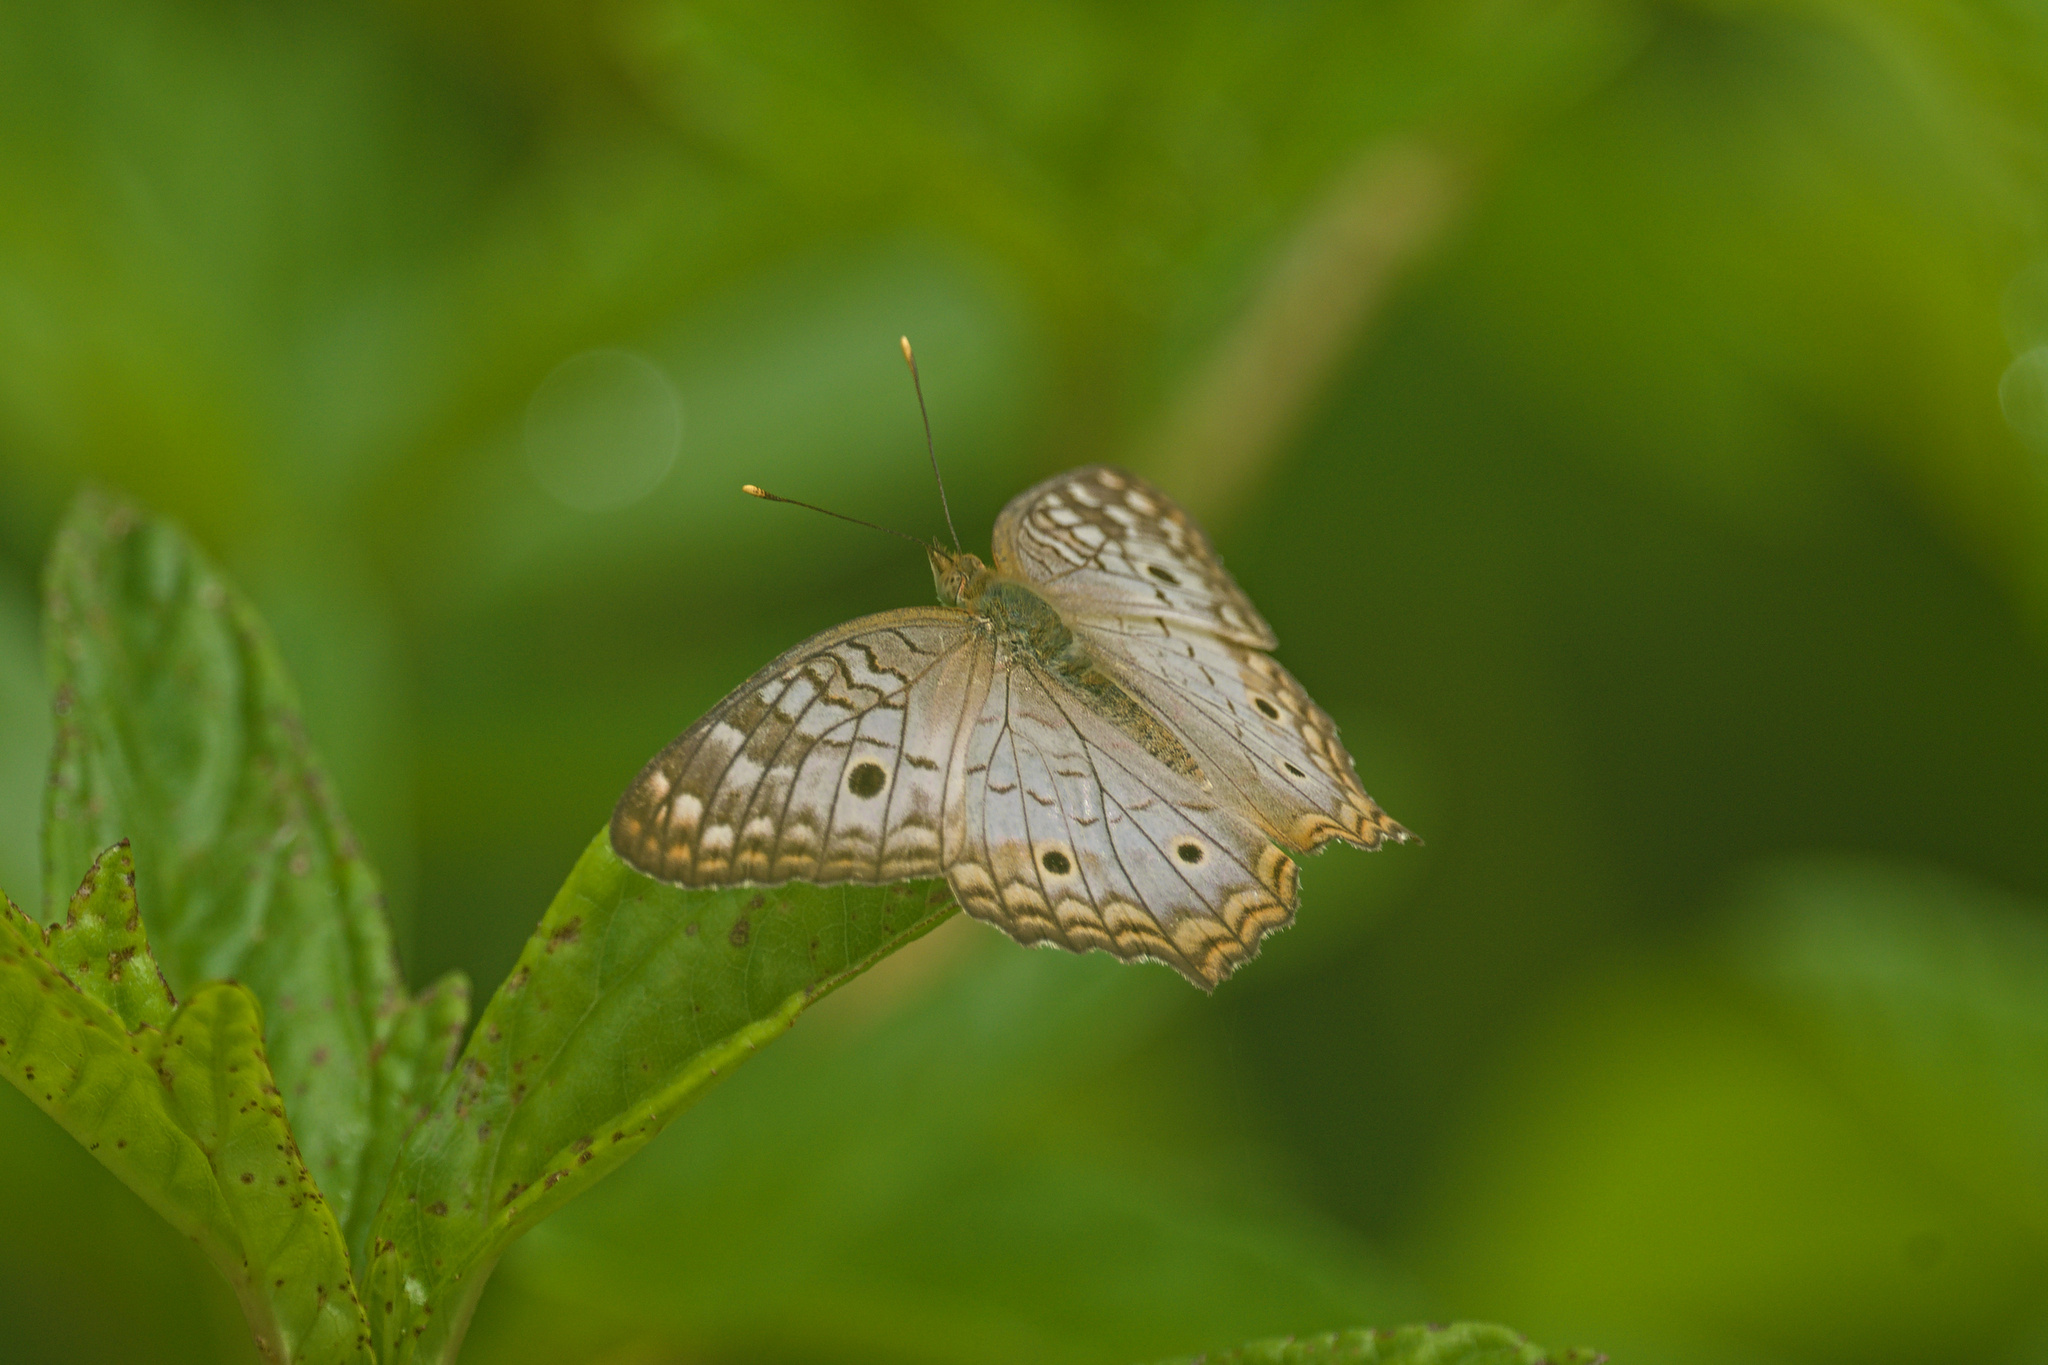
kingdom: Animalia
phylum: Arthropoda
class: Insecta
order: Lepidoptera
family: Nymphalidae
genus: Anartia
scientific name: Anartia jatrophae
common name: White peacock
